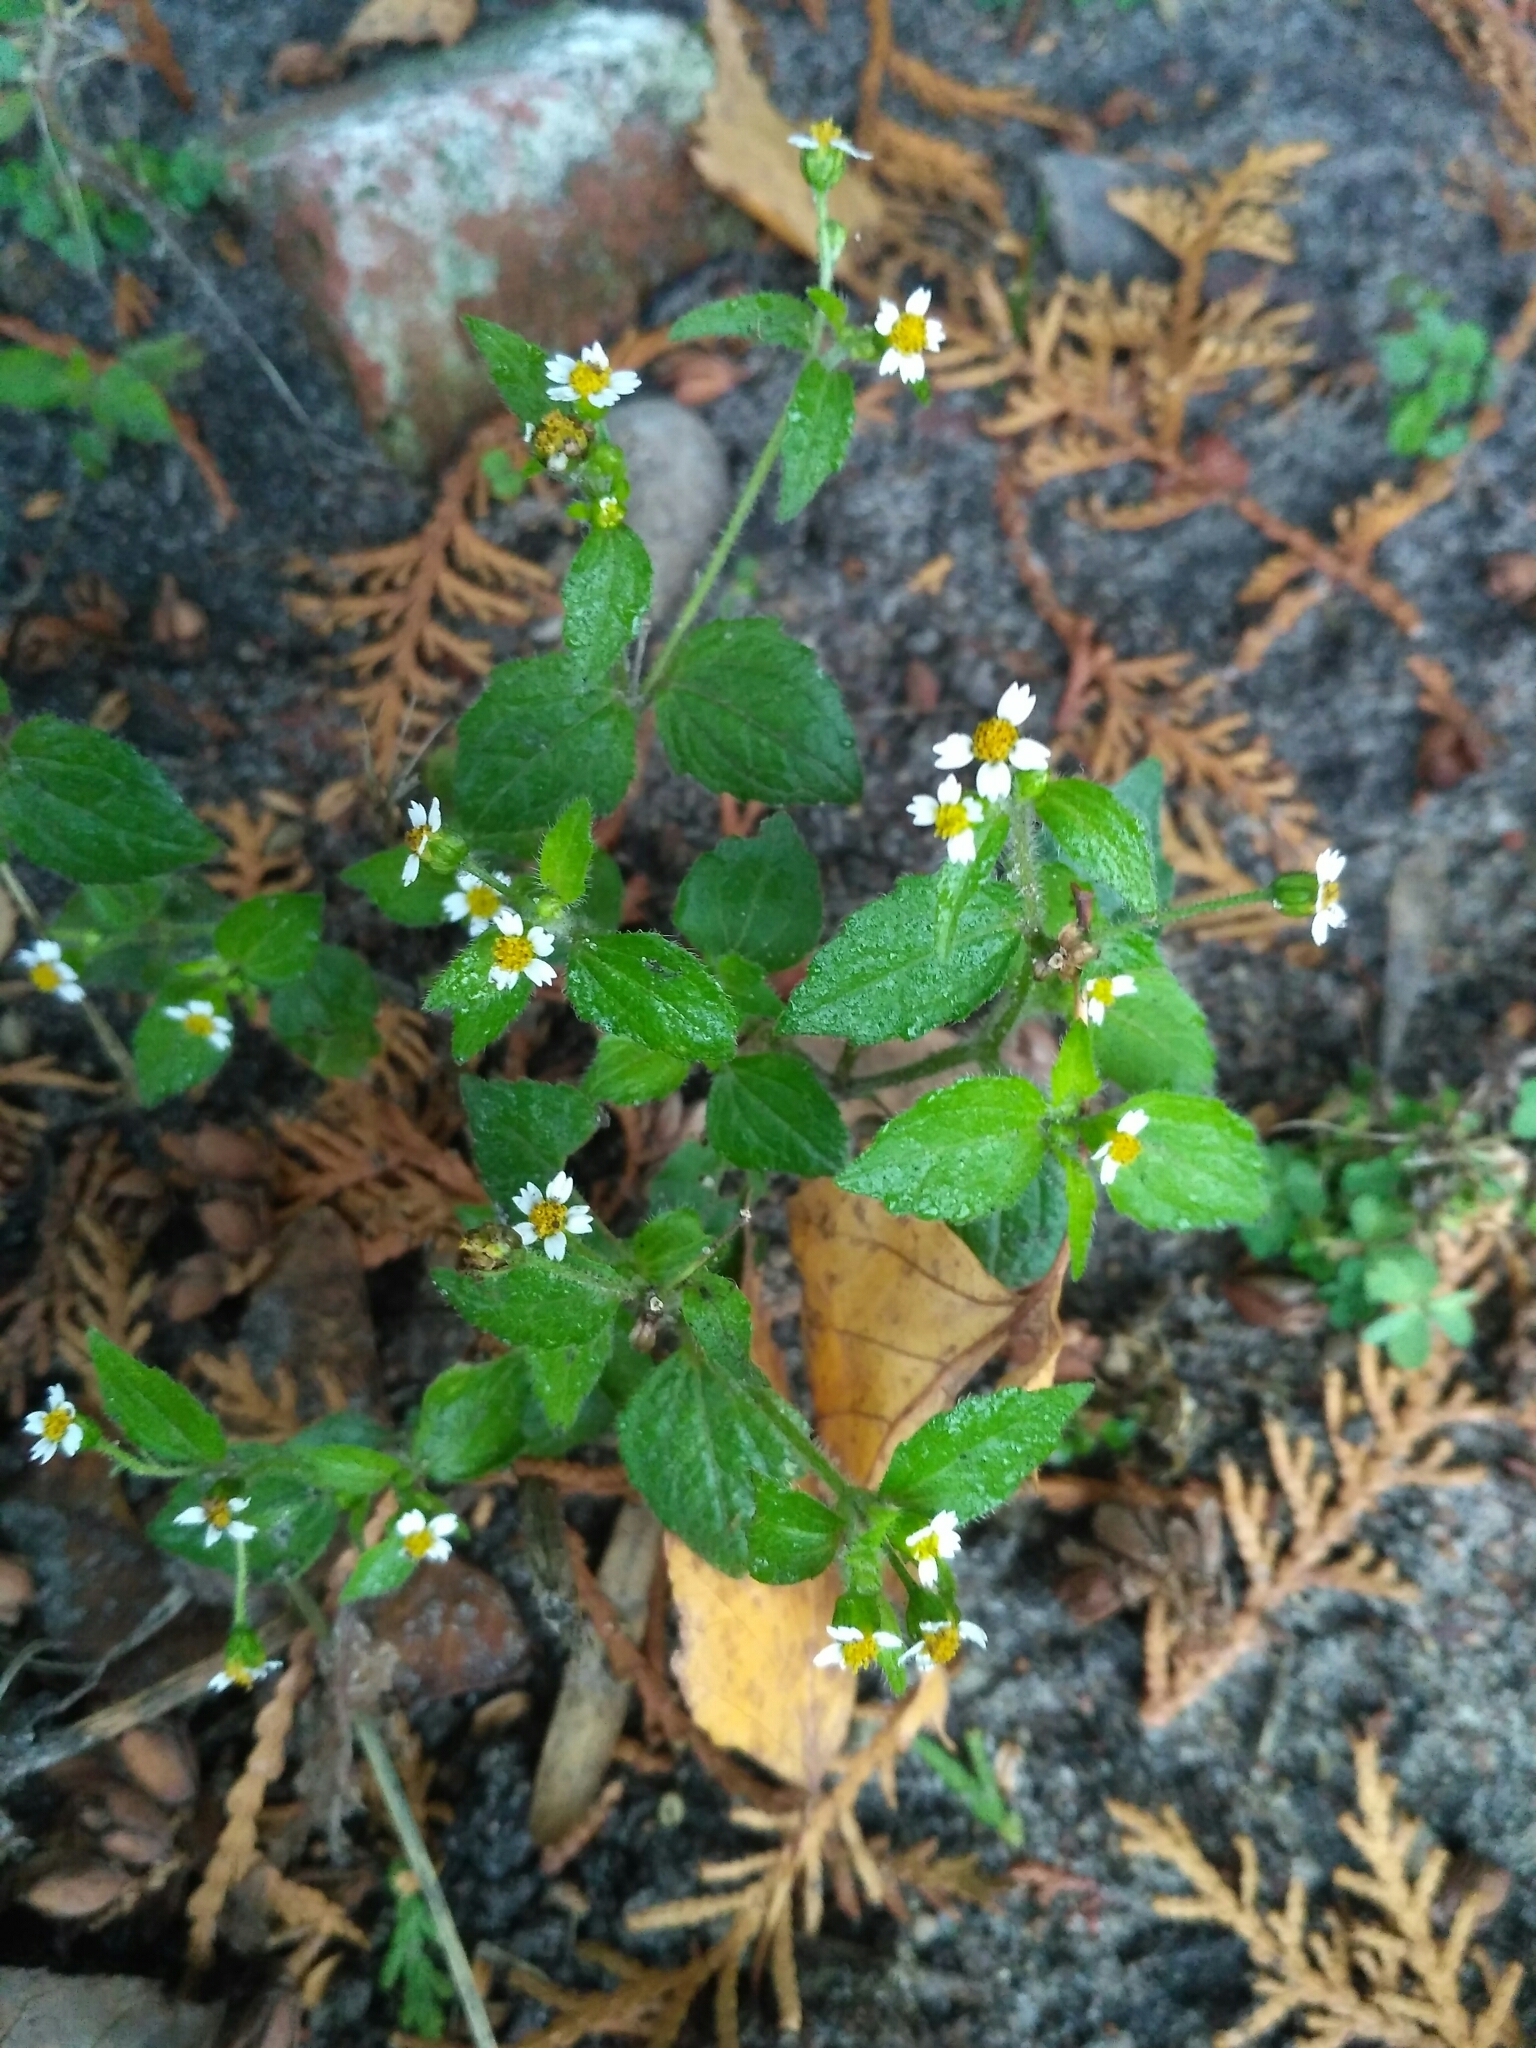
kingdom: Plantae
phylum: Tracheophyta
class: Magnoliopsida
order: Asterales
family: Asteraceae
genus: Galinsoga
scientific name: Galinsoga quadriradiata
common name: Shaggy soldier
